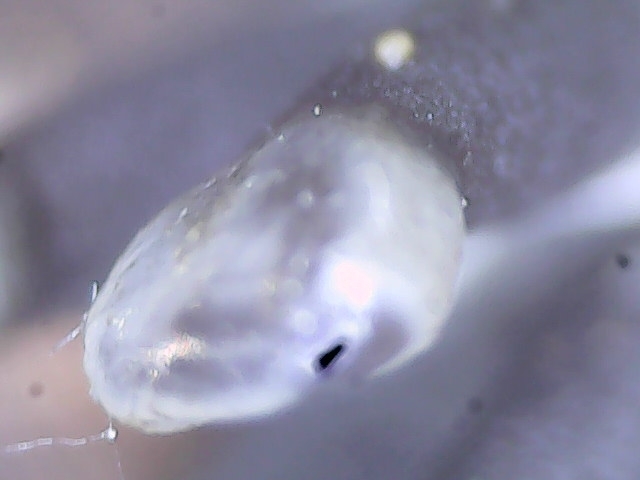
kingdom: Fungi
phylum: Ascomycota
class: Leotiomycetes
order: Helotiales
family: Bulgariaceae
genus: Holwaya
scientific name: Holwaya mucida
